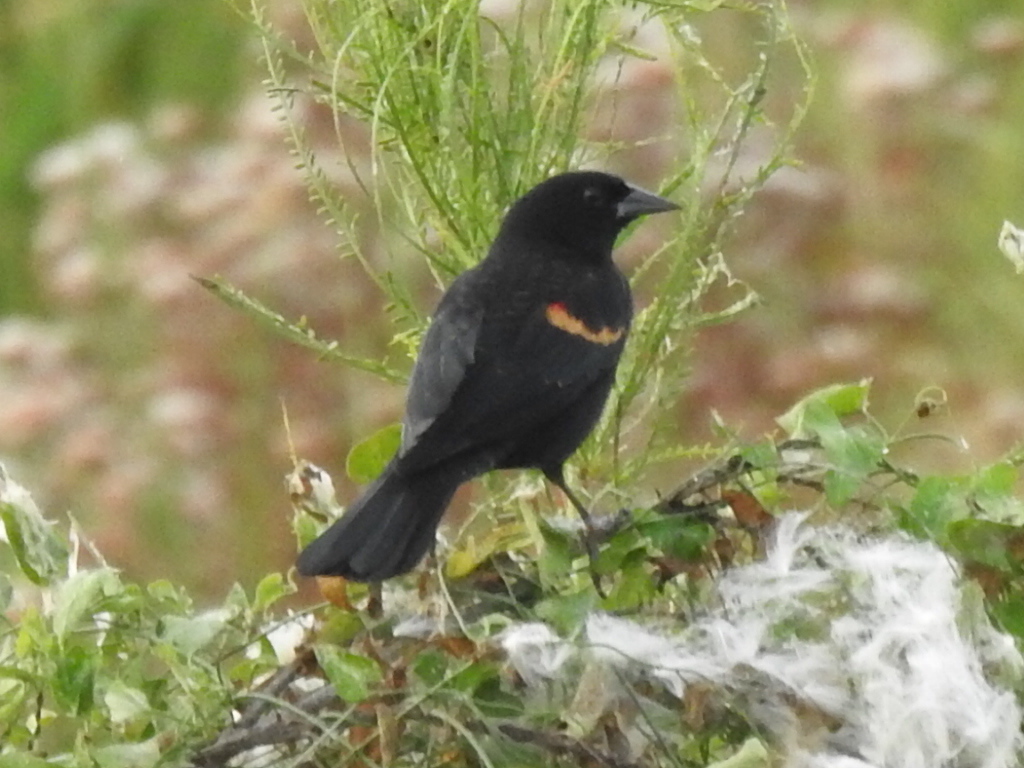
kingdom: Animalia
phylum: Chordata
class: Aves
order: Passeriformes
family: Icteridae
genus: Agelaius
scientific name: Agelaius phoeniceus
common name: Red-winged blackbird
